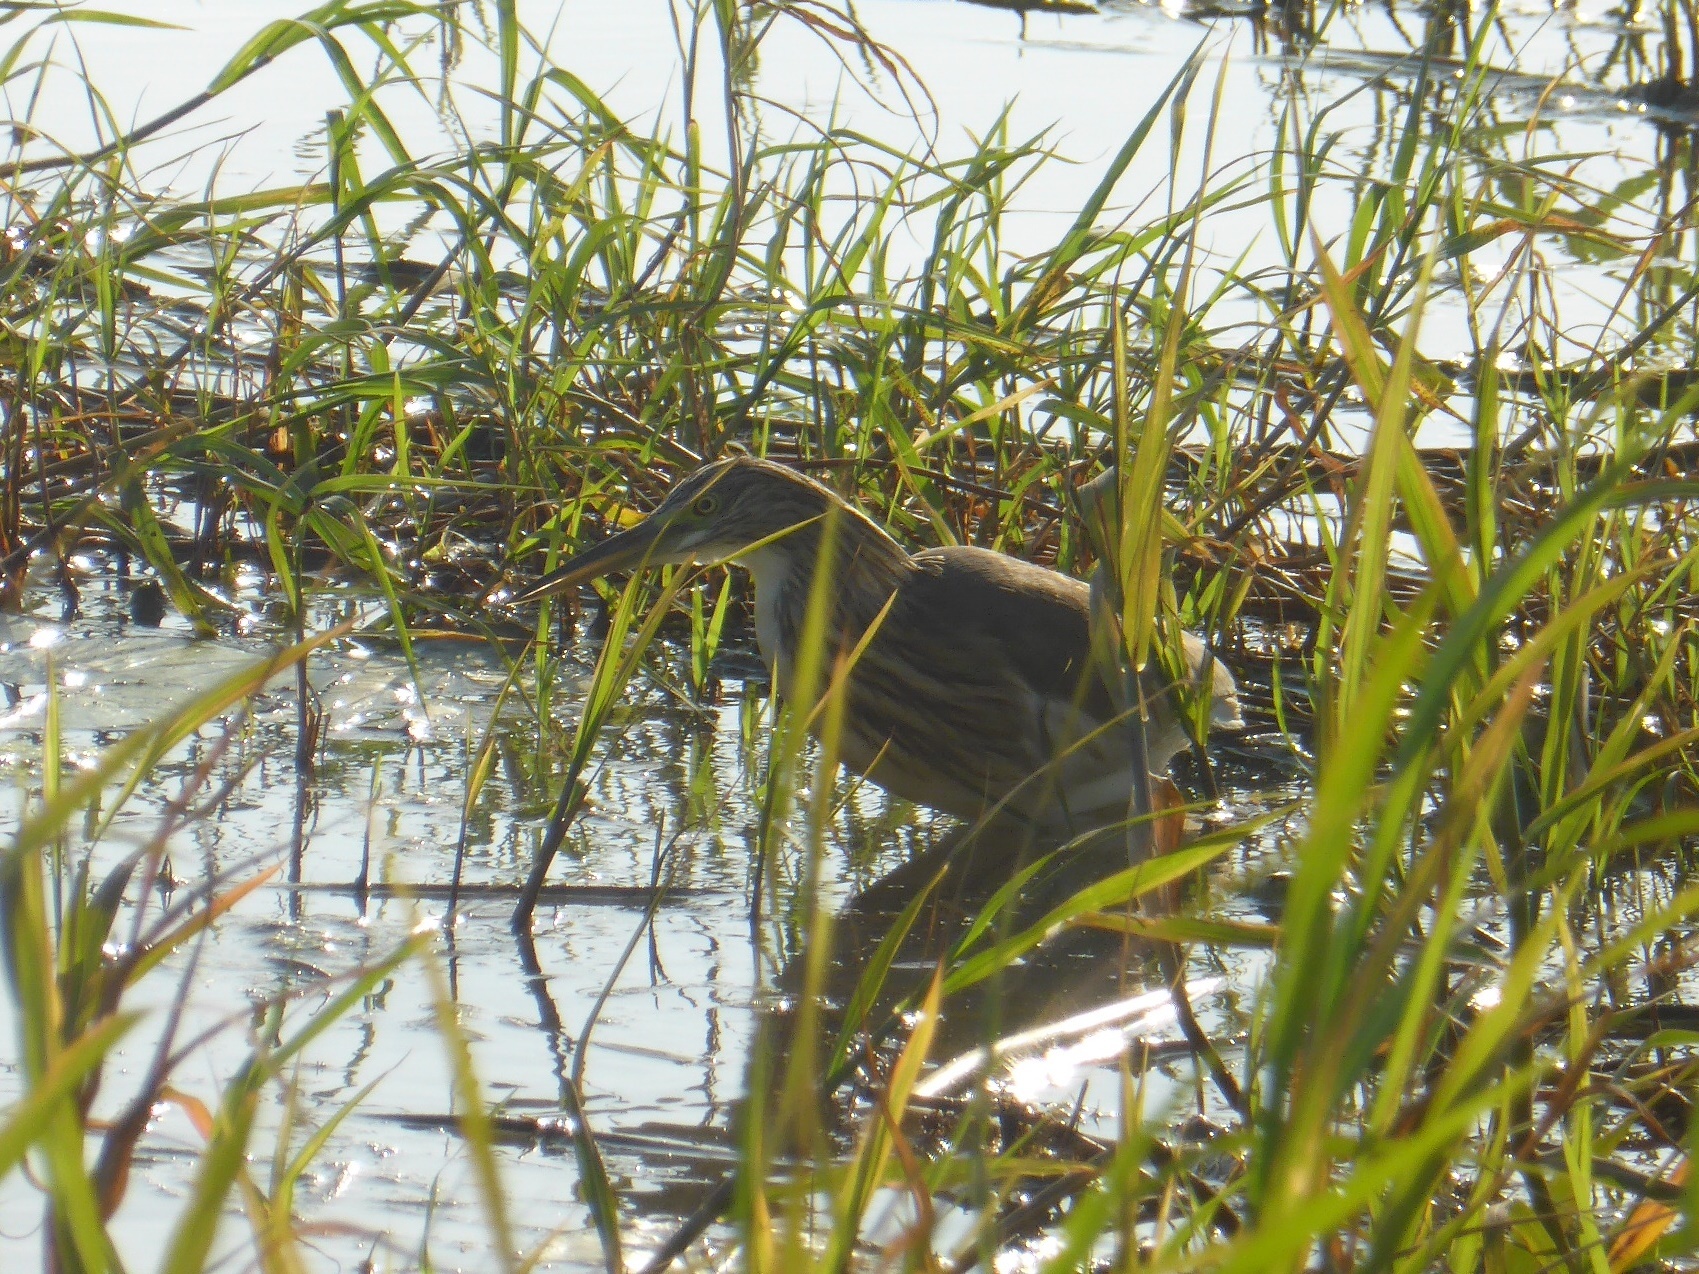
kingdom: Animalia
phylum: Chordata
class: Aves
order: Pelecaniformes
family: Ardeidae
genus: Ardeola
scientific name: Ardeola ralloides
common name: Squacco heron
